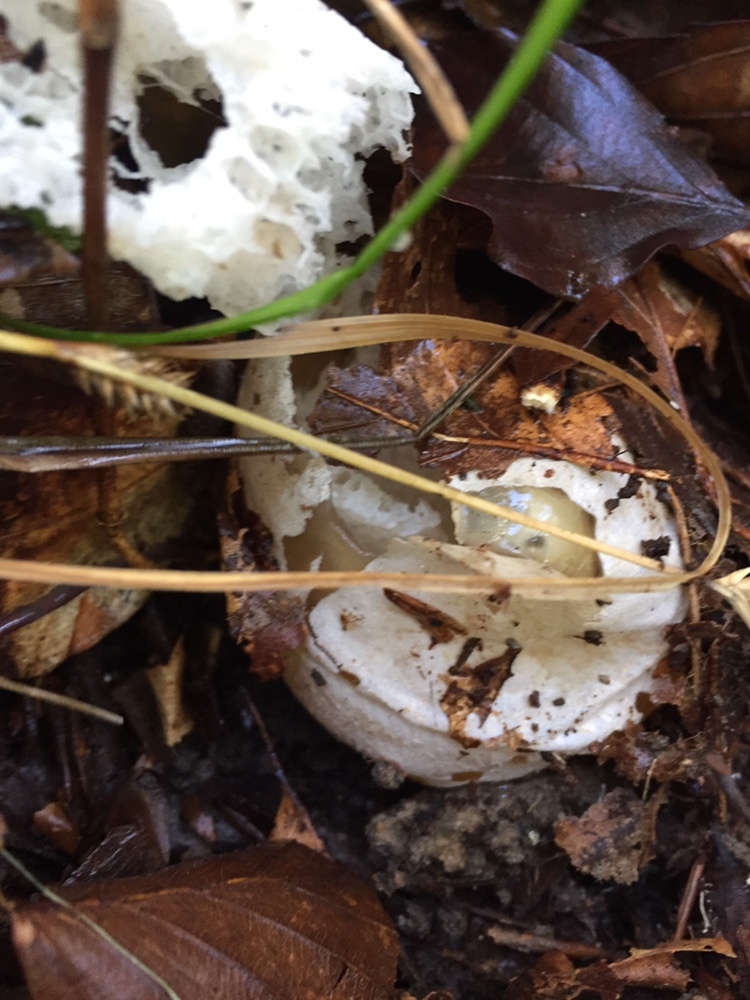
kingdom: Fungi
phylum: Basidiomycota
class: Agaricomycetes
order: Phallales
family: Phallaceae
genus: Phallus
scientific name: Phallus impudicus
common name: Common stinkhorn
